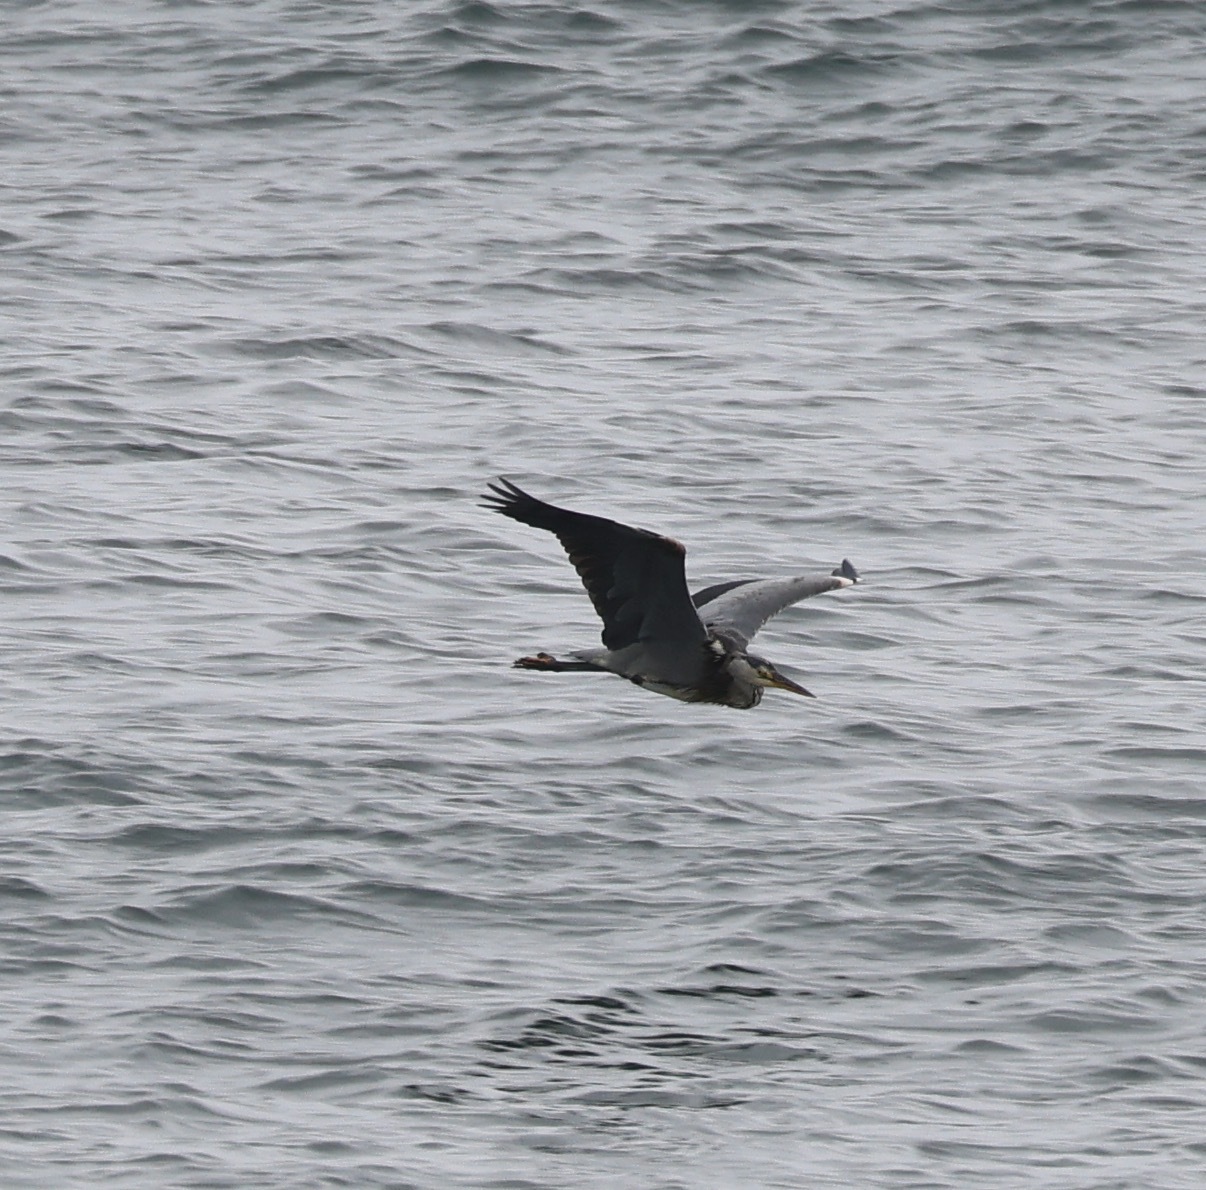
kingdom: Animalia
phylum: Chordata
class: Aves
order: Pelecaniformes
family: Ardeidae
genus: Ardea
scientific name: Ardea cinerea
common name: Grey heron
